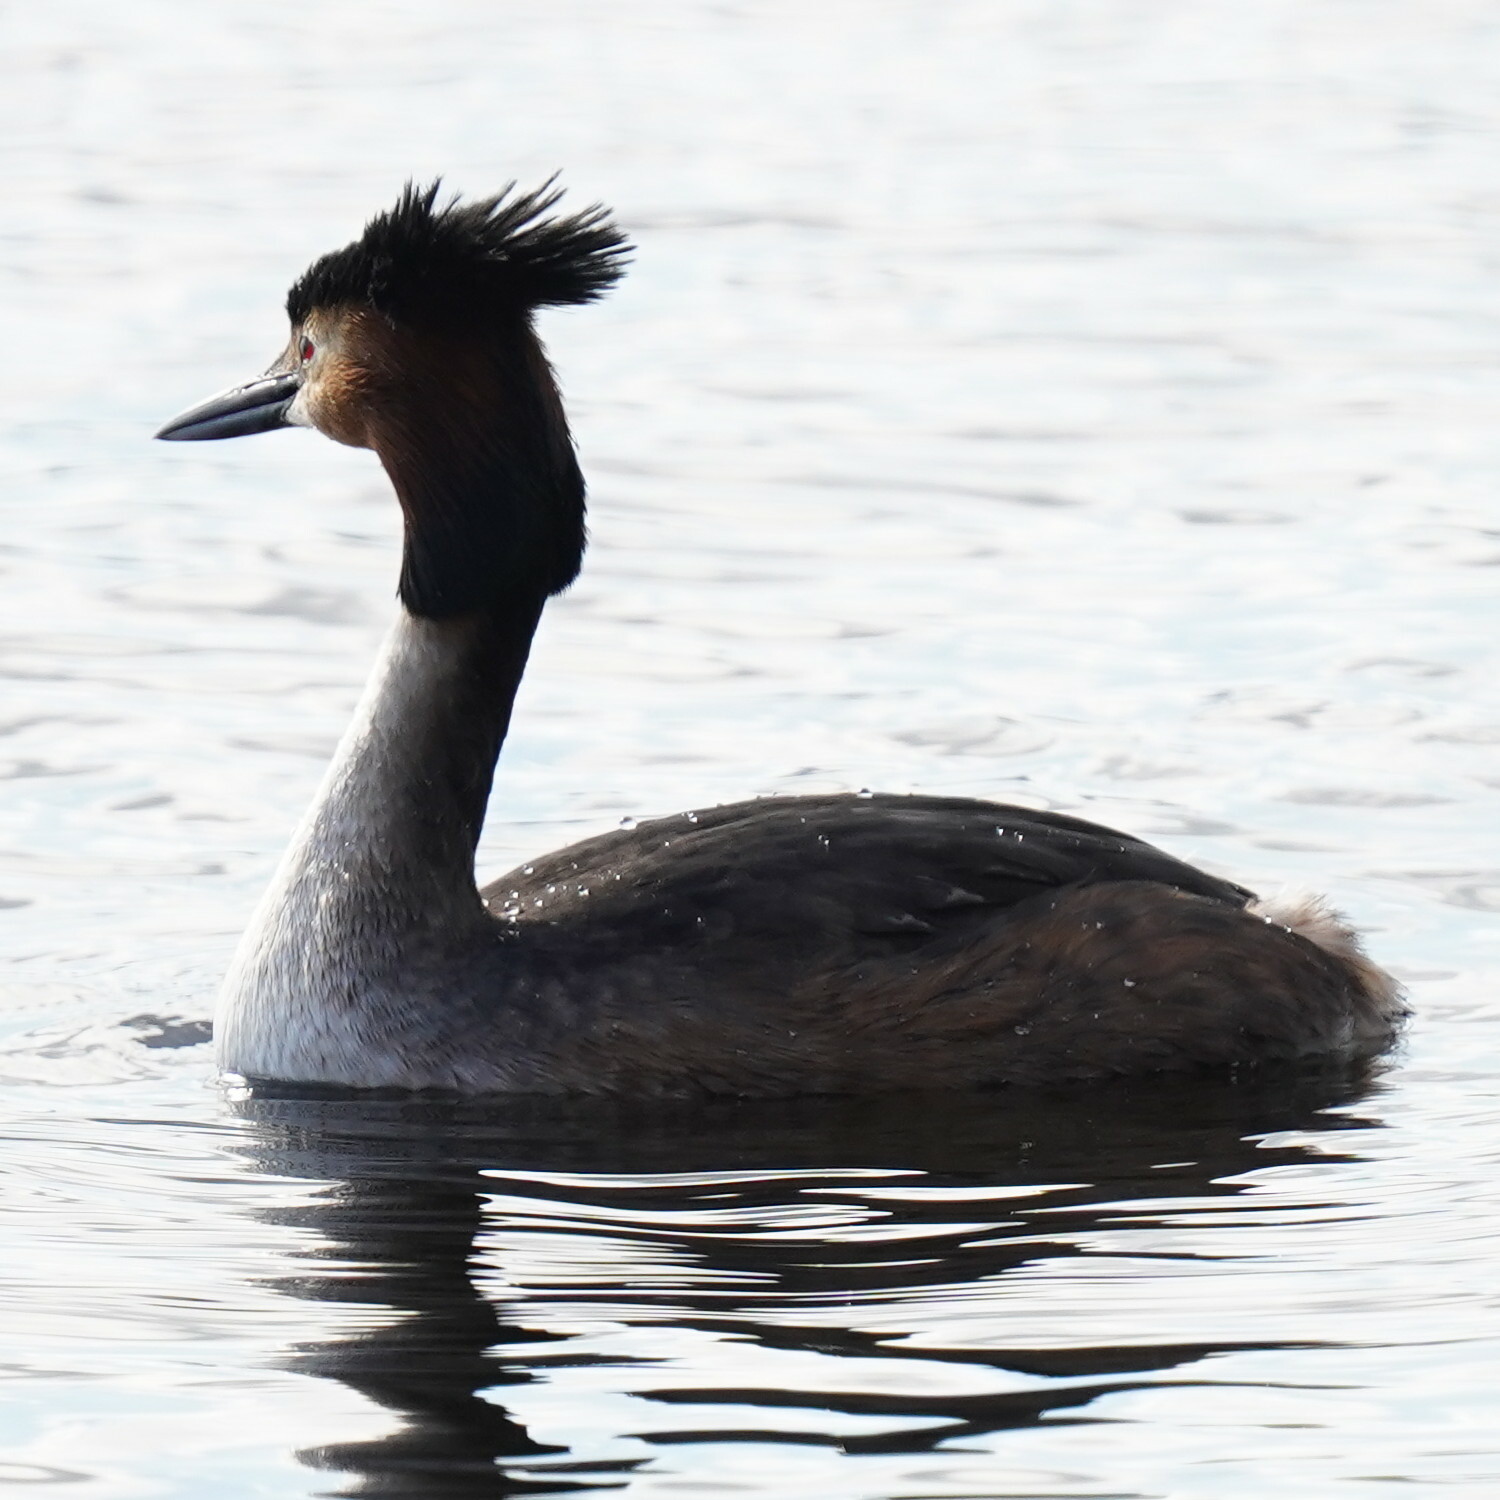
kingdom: Animalia
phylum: Chordata
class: Aves
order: Podicipediformes
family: Podicipedidae
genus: Podiceps
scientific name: Podiceps cristatus
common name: Great crested grebe
